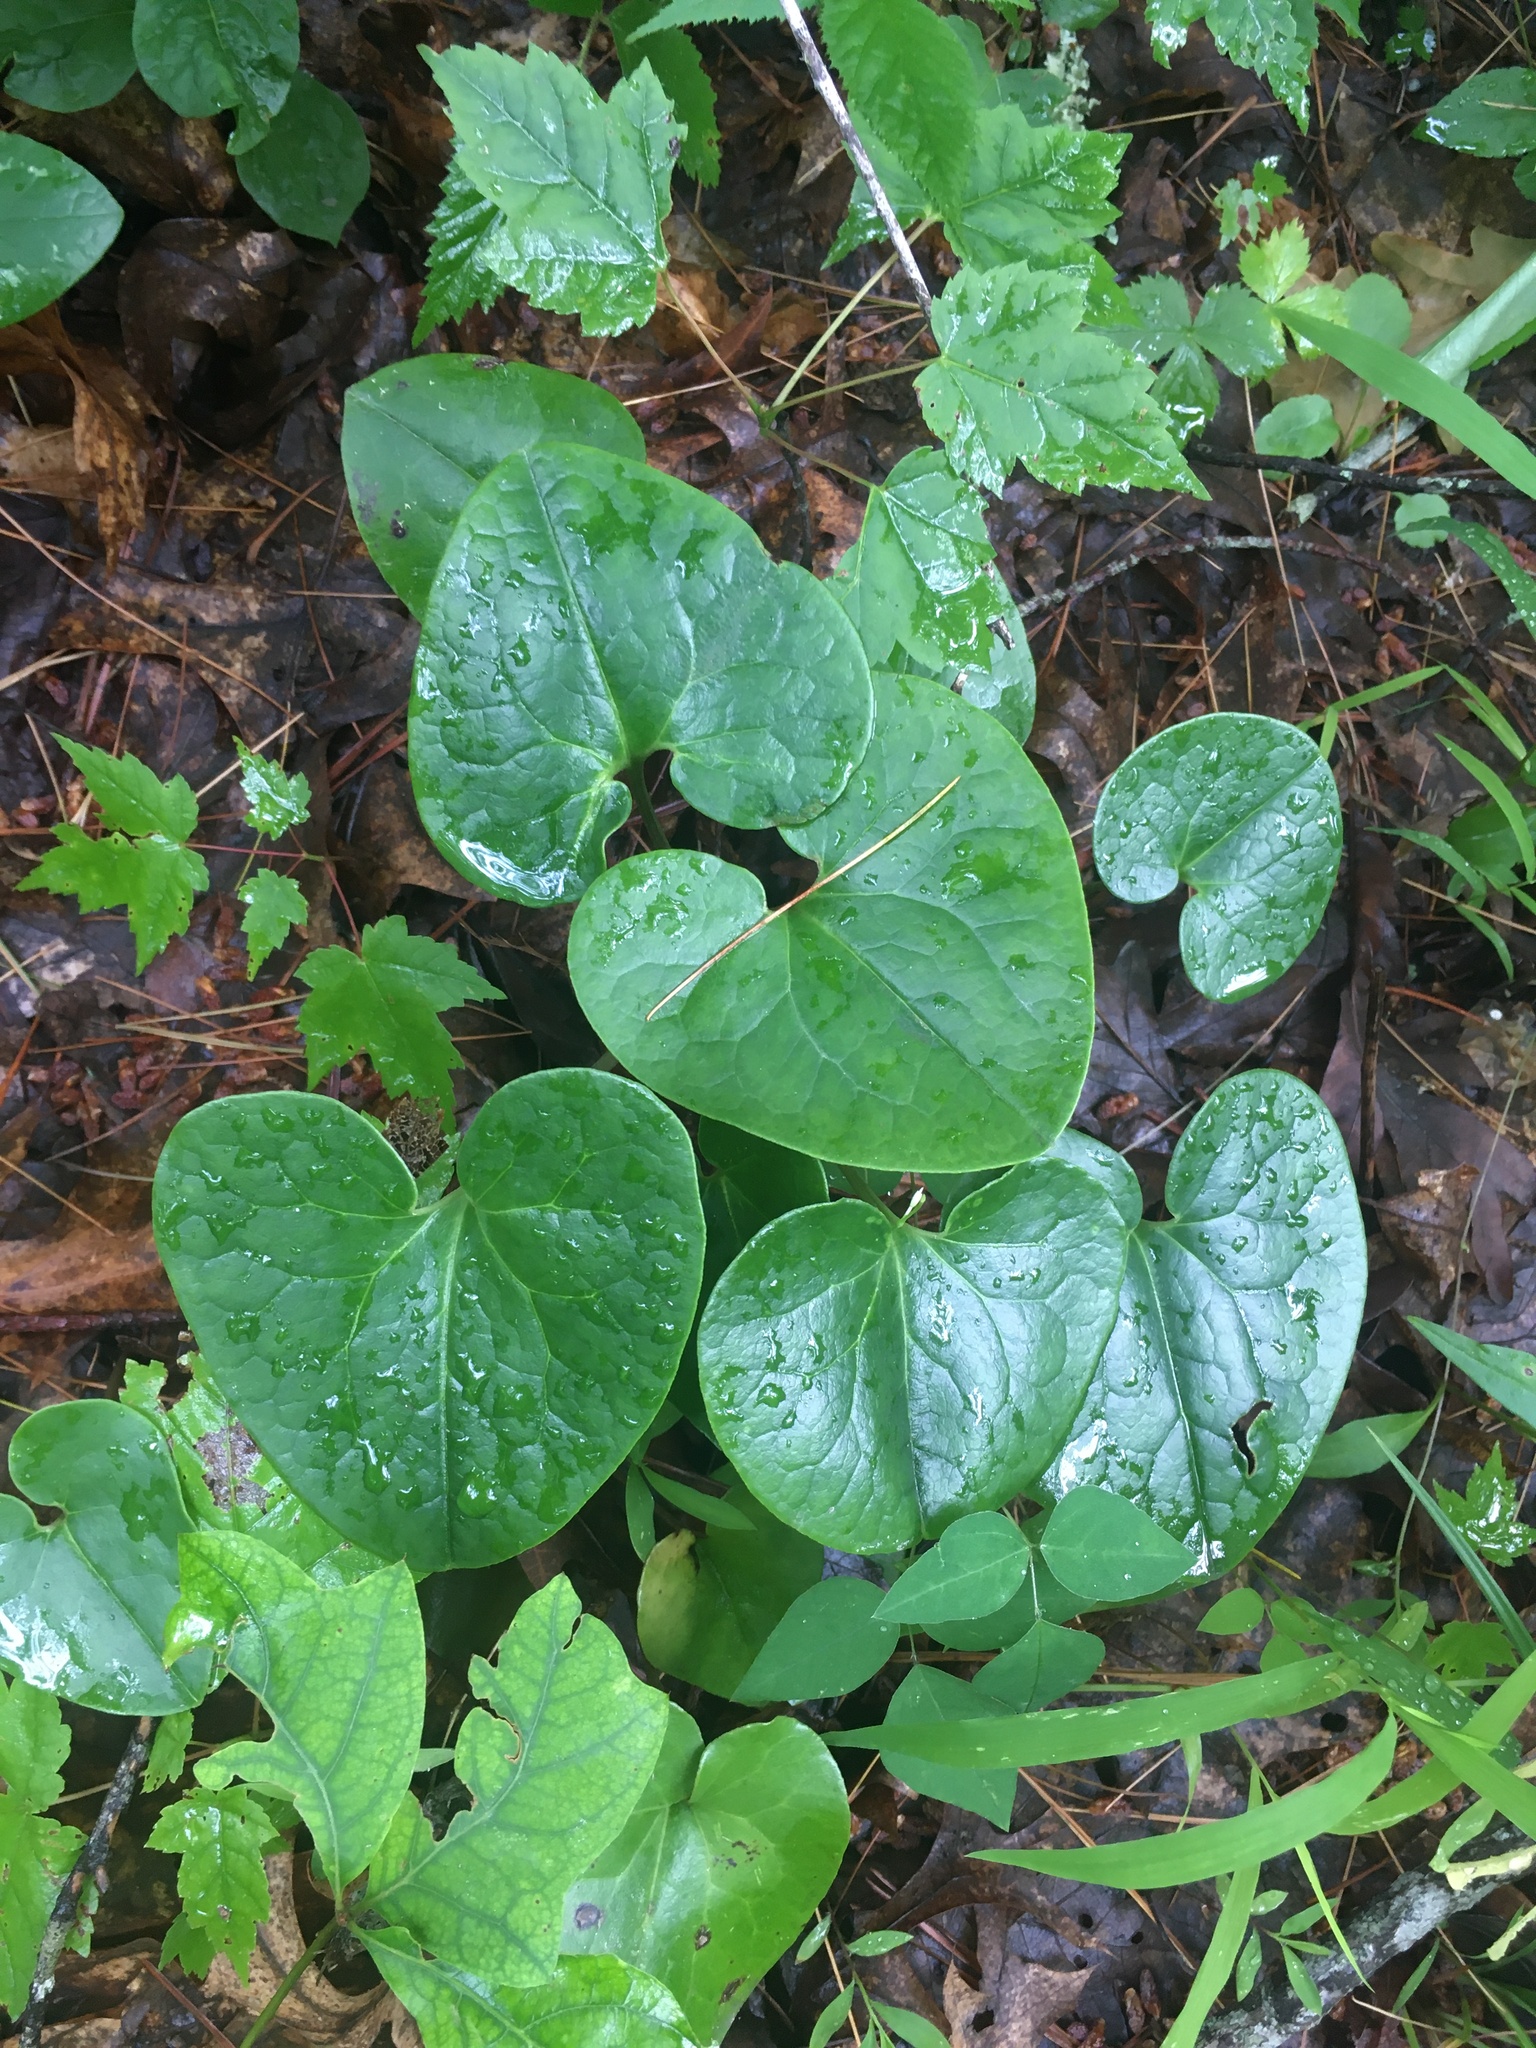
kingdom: Plantae
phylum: Tracheophyta
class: Magnoliopsida
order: Piperales
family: Aristolochiaceae
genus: Asarum
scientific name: Asarum canadense
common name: Wild ginger
